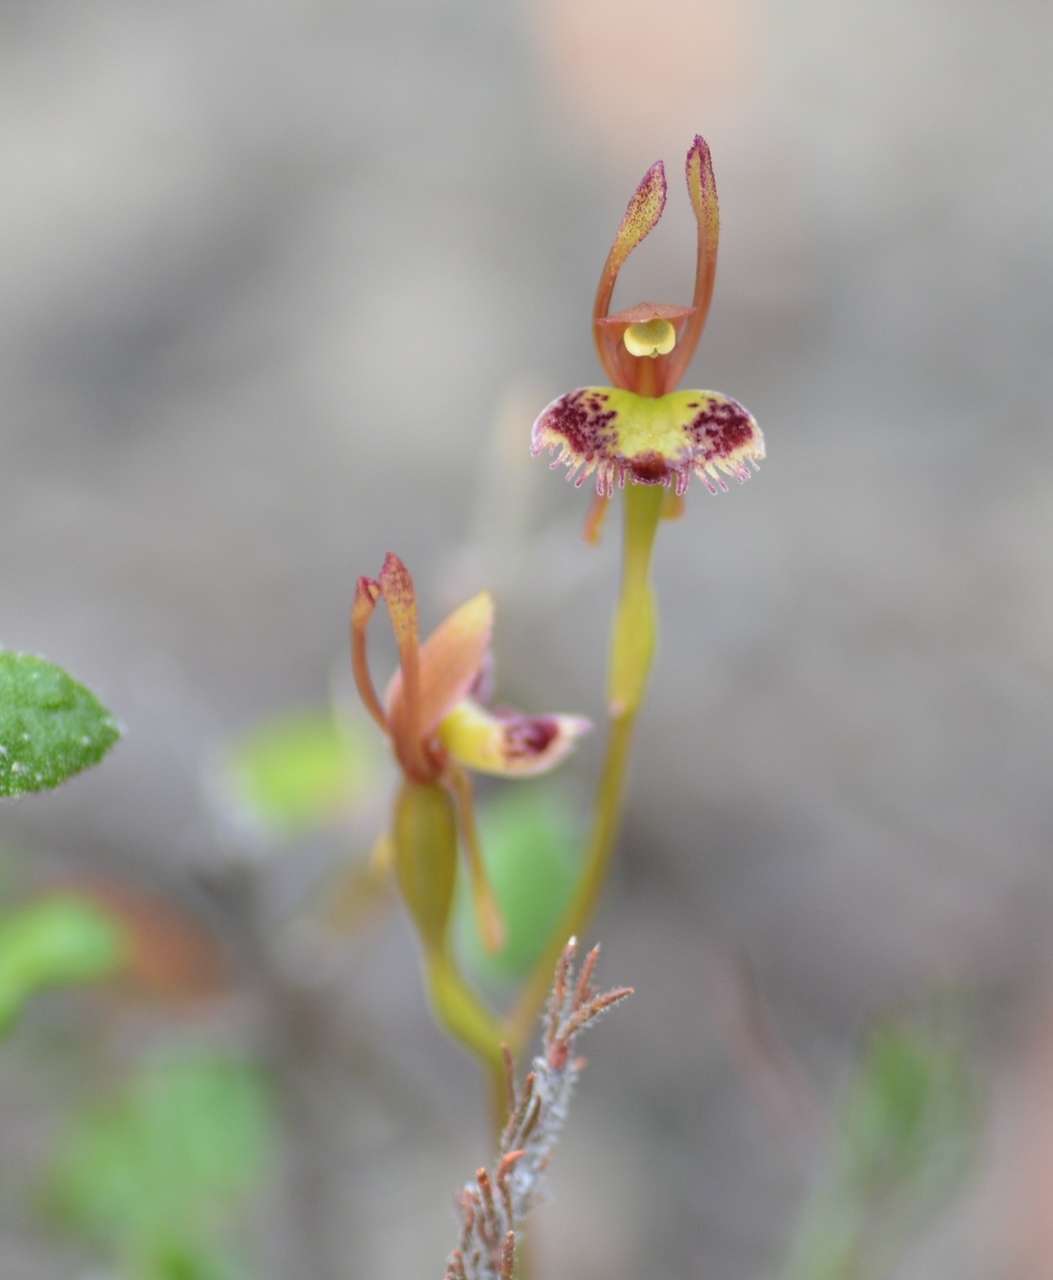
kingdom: Plantae
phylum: Tracheophyta
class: Liliopsida
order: Asparagales
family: Orchidaceae
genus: Leporella
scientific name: Leporella fimbriata
